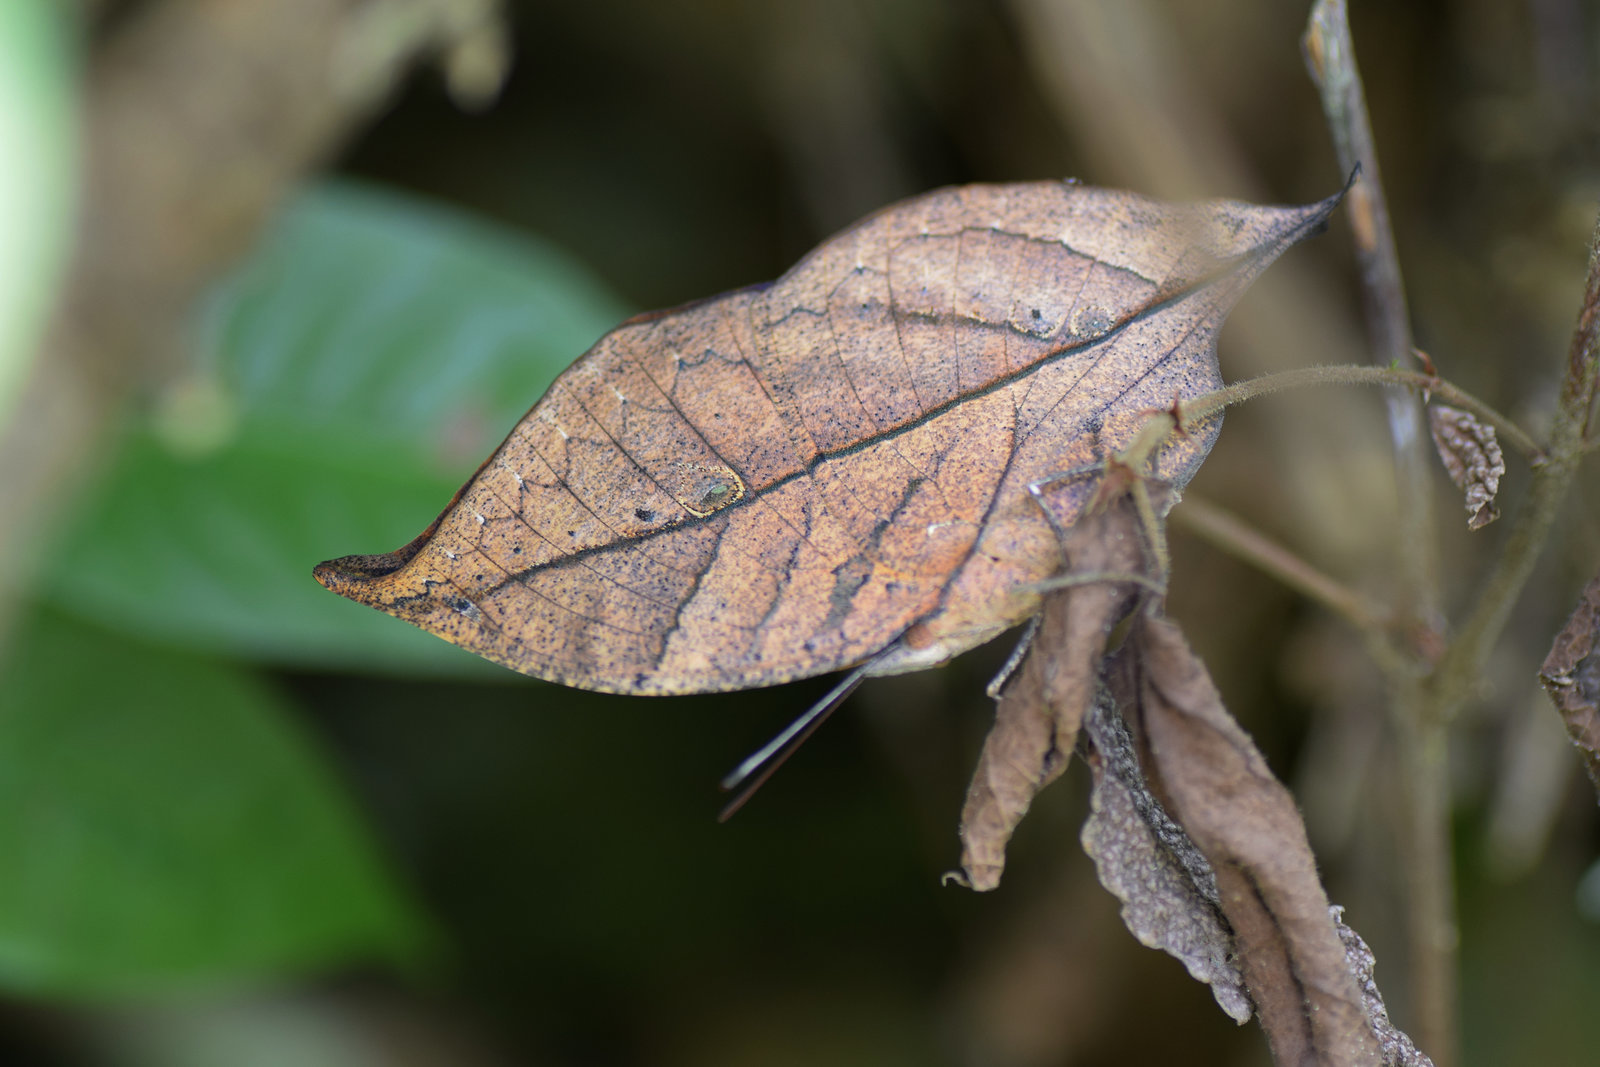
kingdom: Animalia
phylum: Arthropoda
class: Insecta
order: Lepidoptera
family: Nymphalidae
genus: Kallima
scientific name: Kallima inachus
